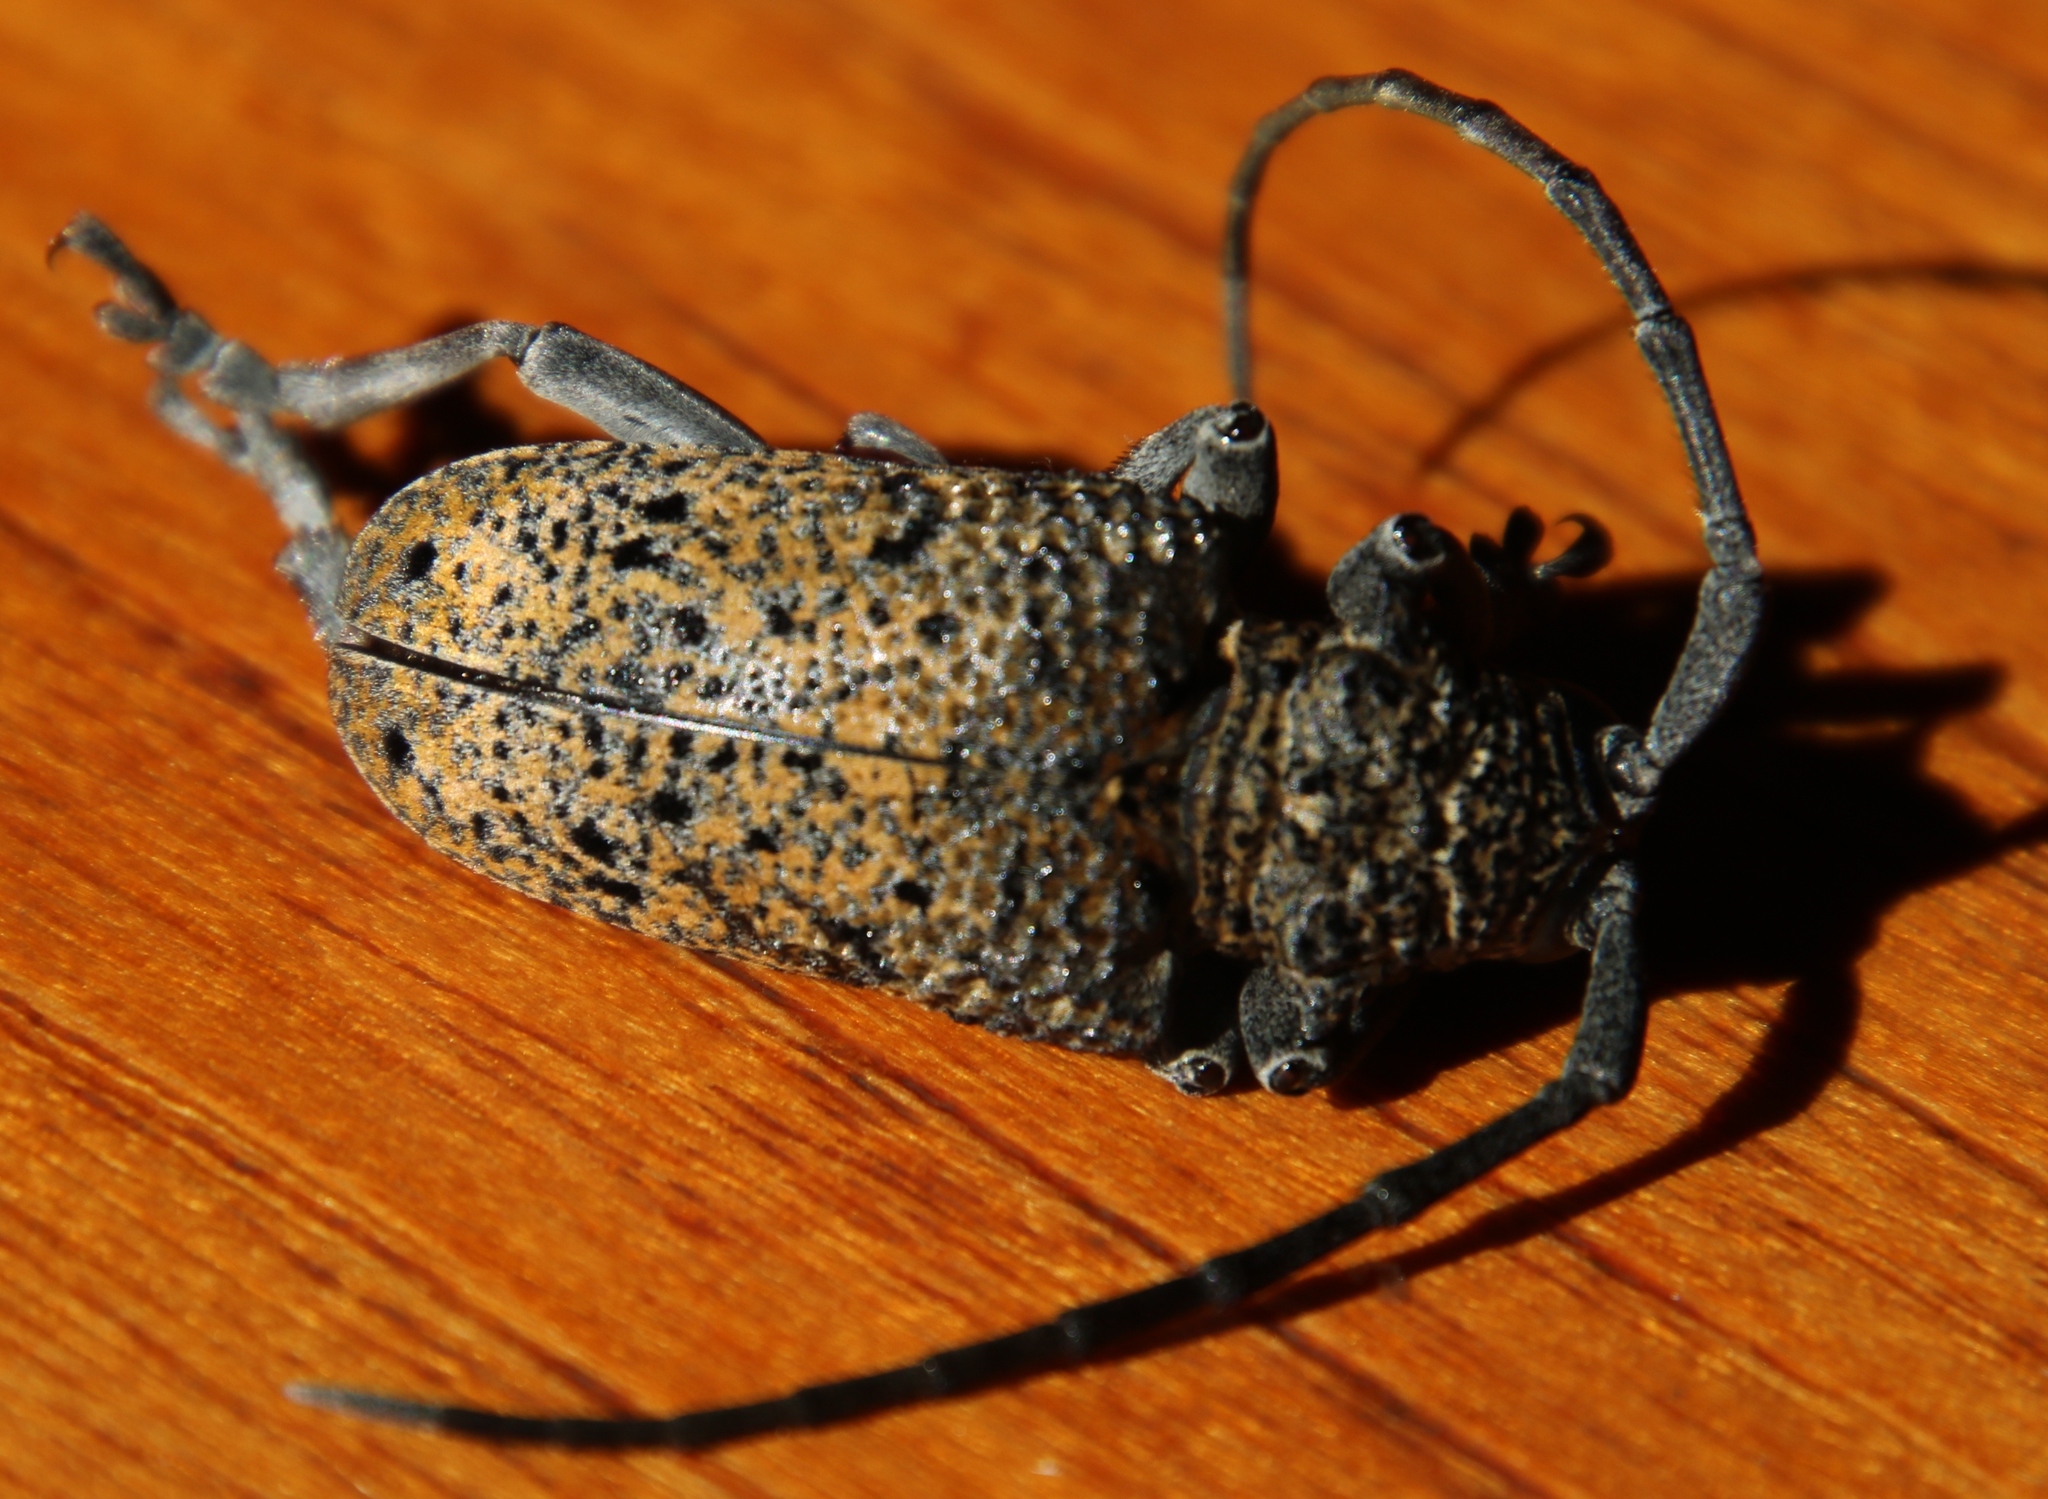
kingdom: Animalia
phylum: Arthropoda
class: Insecta
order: Coleoptera
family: Cerambycidae
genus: Phryneta
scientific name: Phryneta spinator
